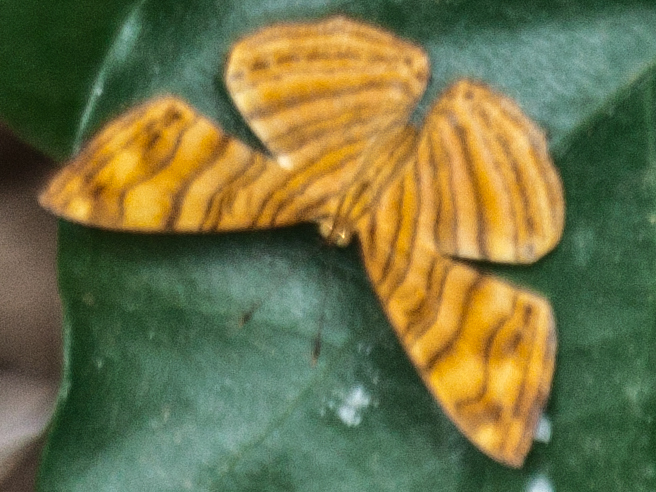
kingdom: Animalia
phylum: Arthropoda
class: Insecta
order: Lepidoptera
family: Nymphalidae
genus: Chersonesia
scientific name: Chersonesia intermedia
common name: Intermediate maplet
